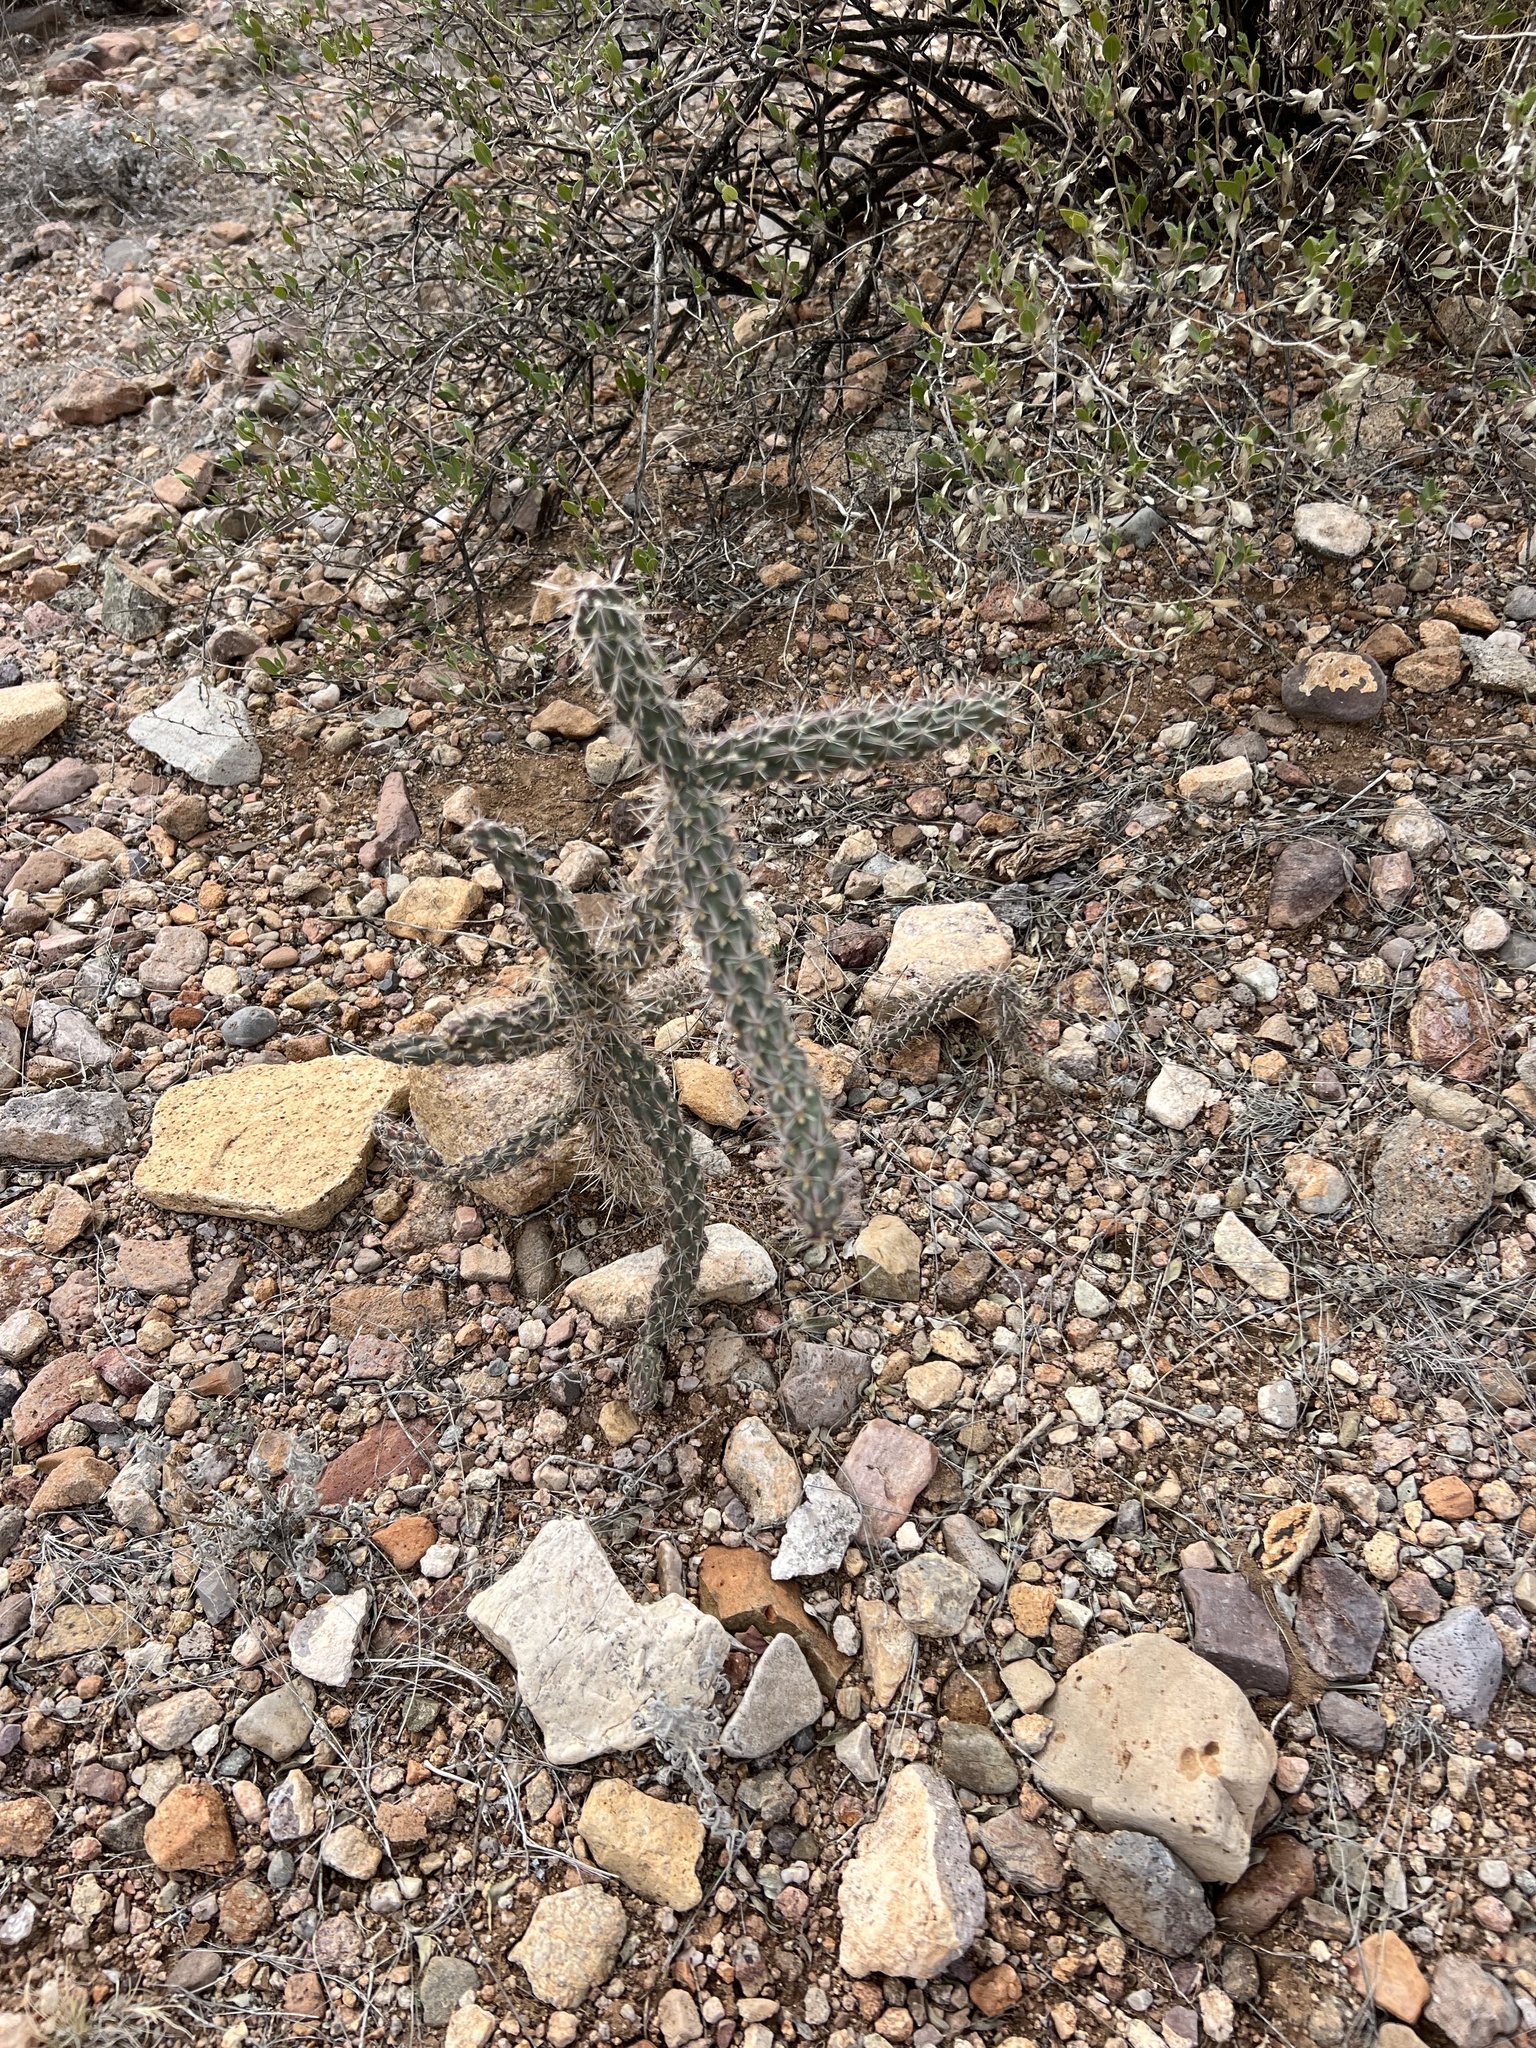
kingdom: Plantae
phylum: Tracheophyta
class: Magnoliopsida
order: Caryophyllales
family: Cactaceae
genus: Cylindropuntia
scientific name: Cylindropuntia imbricata
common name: Candelabrum cactus
